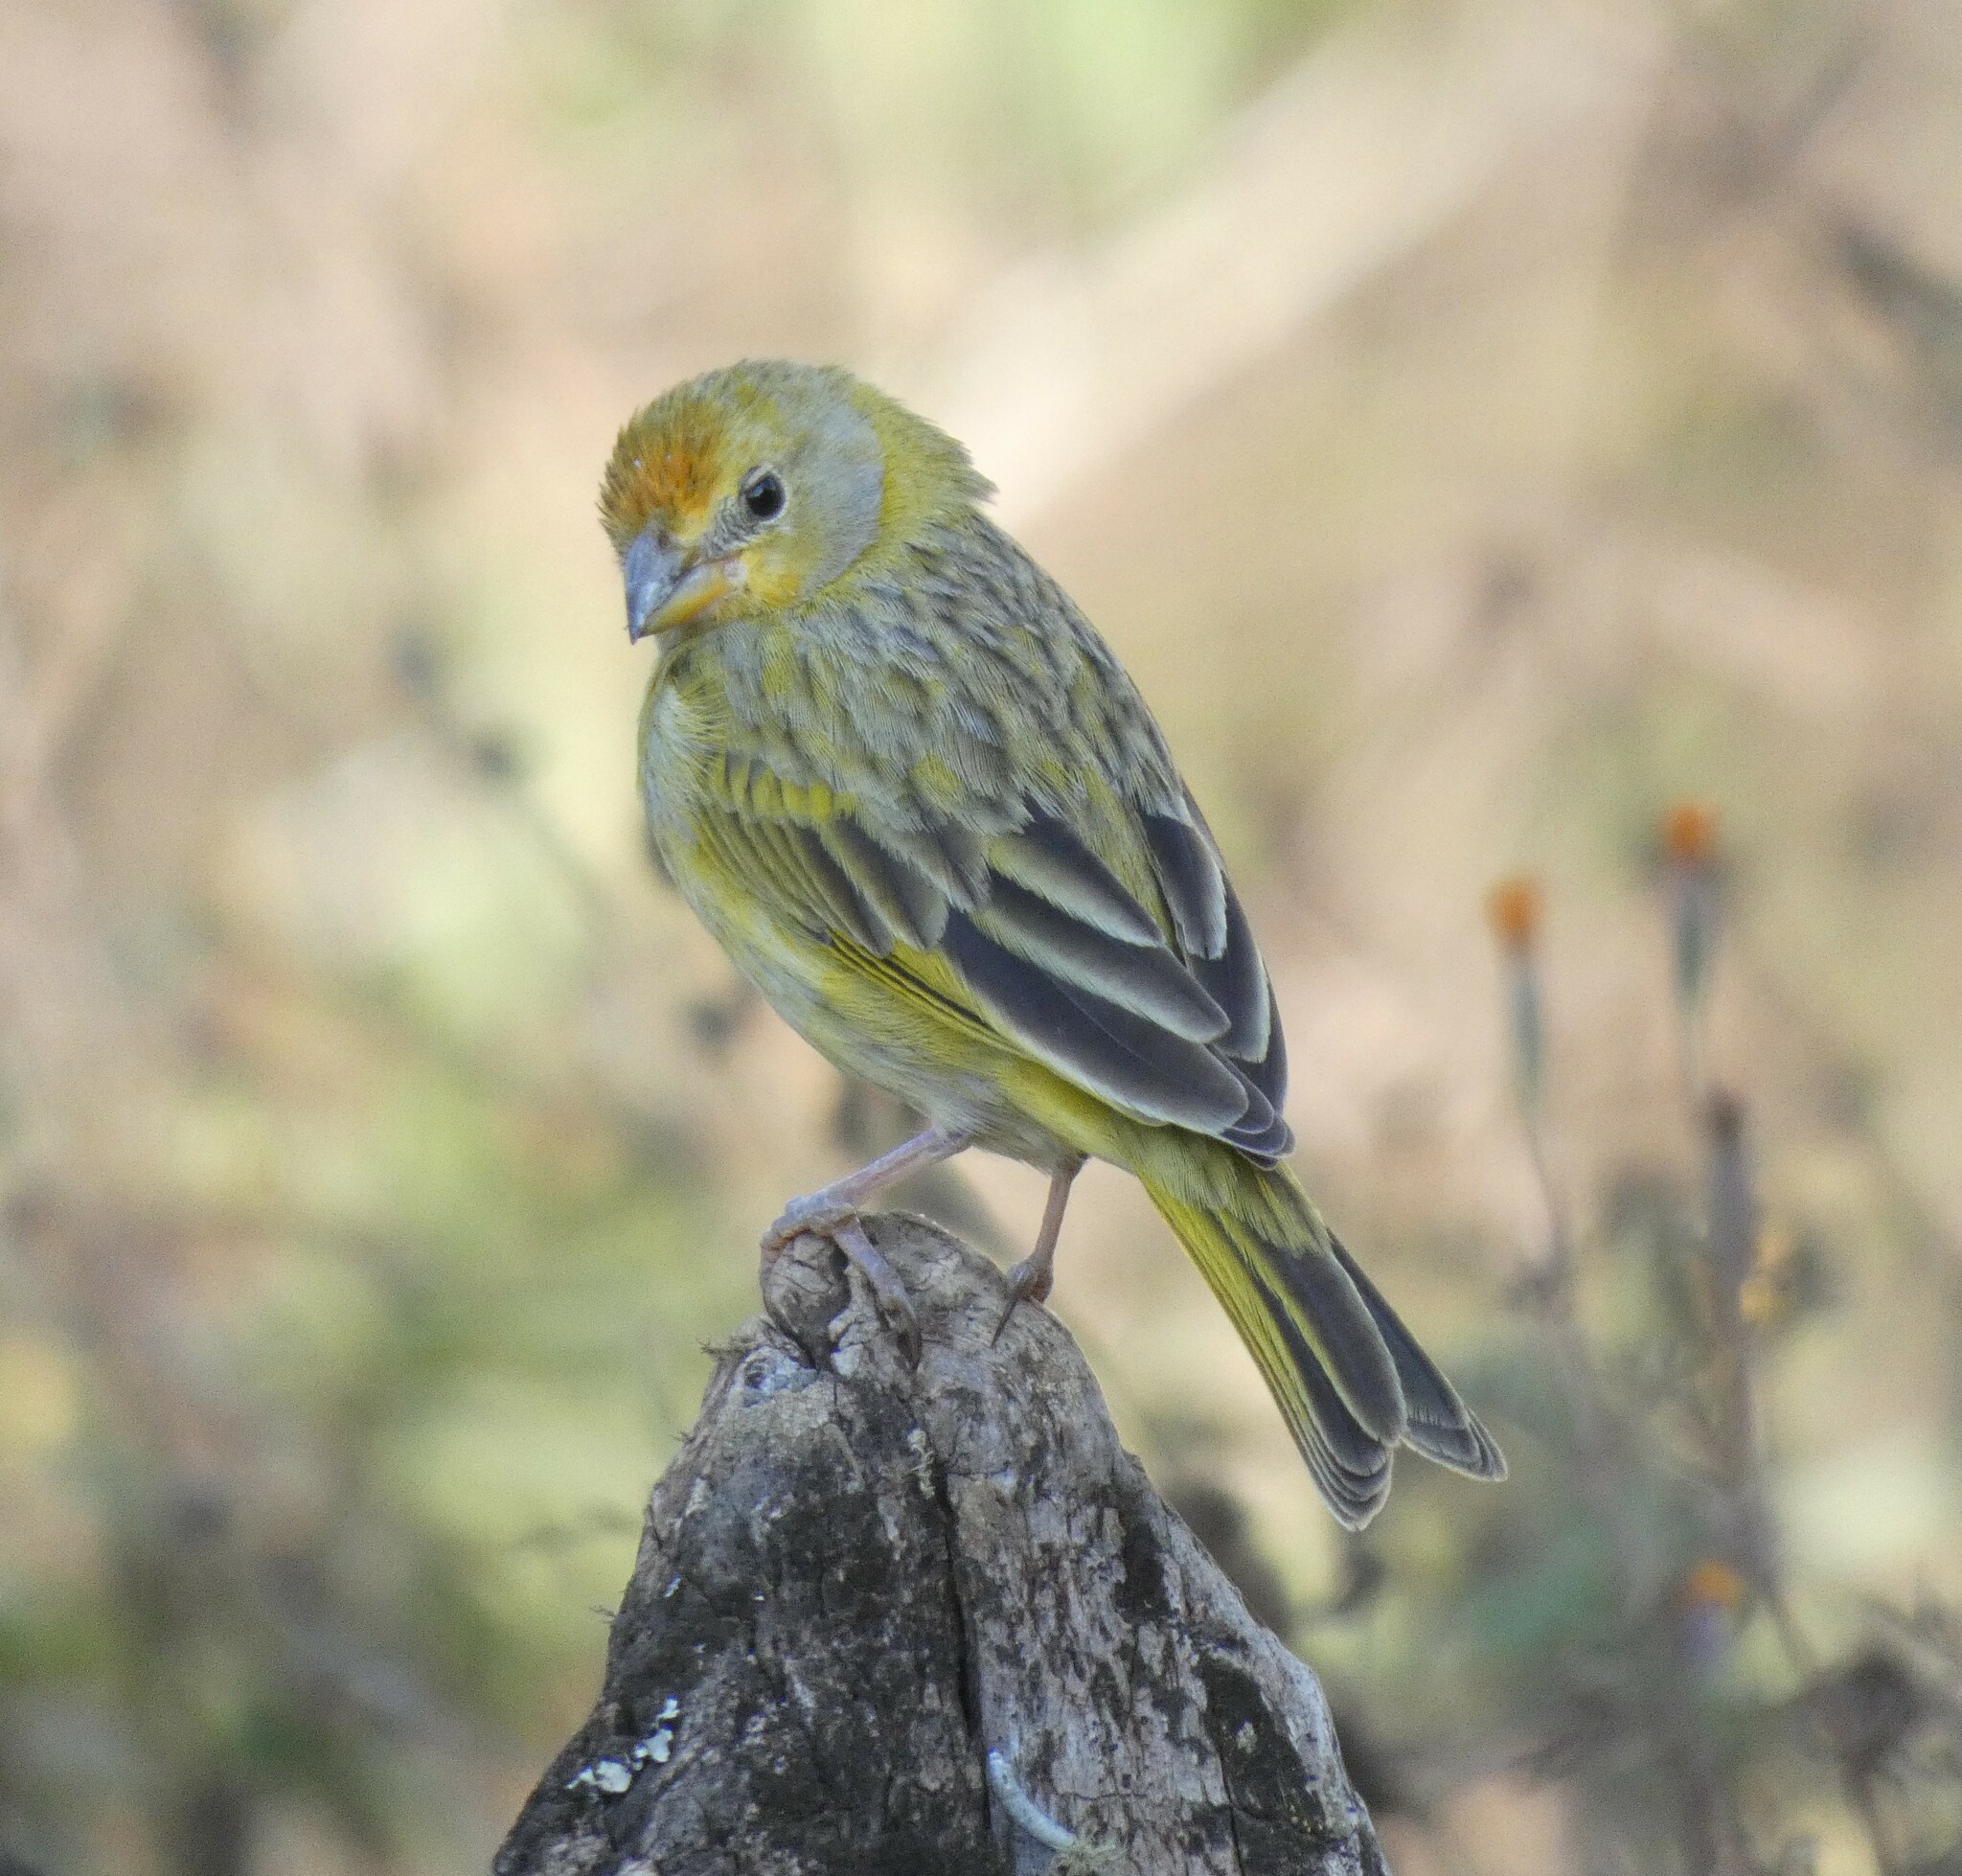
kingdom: Animalia
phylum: Chordata
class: Aves
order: Passeriformes
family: Thraupidae
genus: Sicalis
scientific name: Sicalis flaveola
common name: Saffron finch
